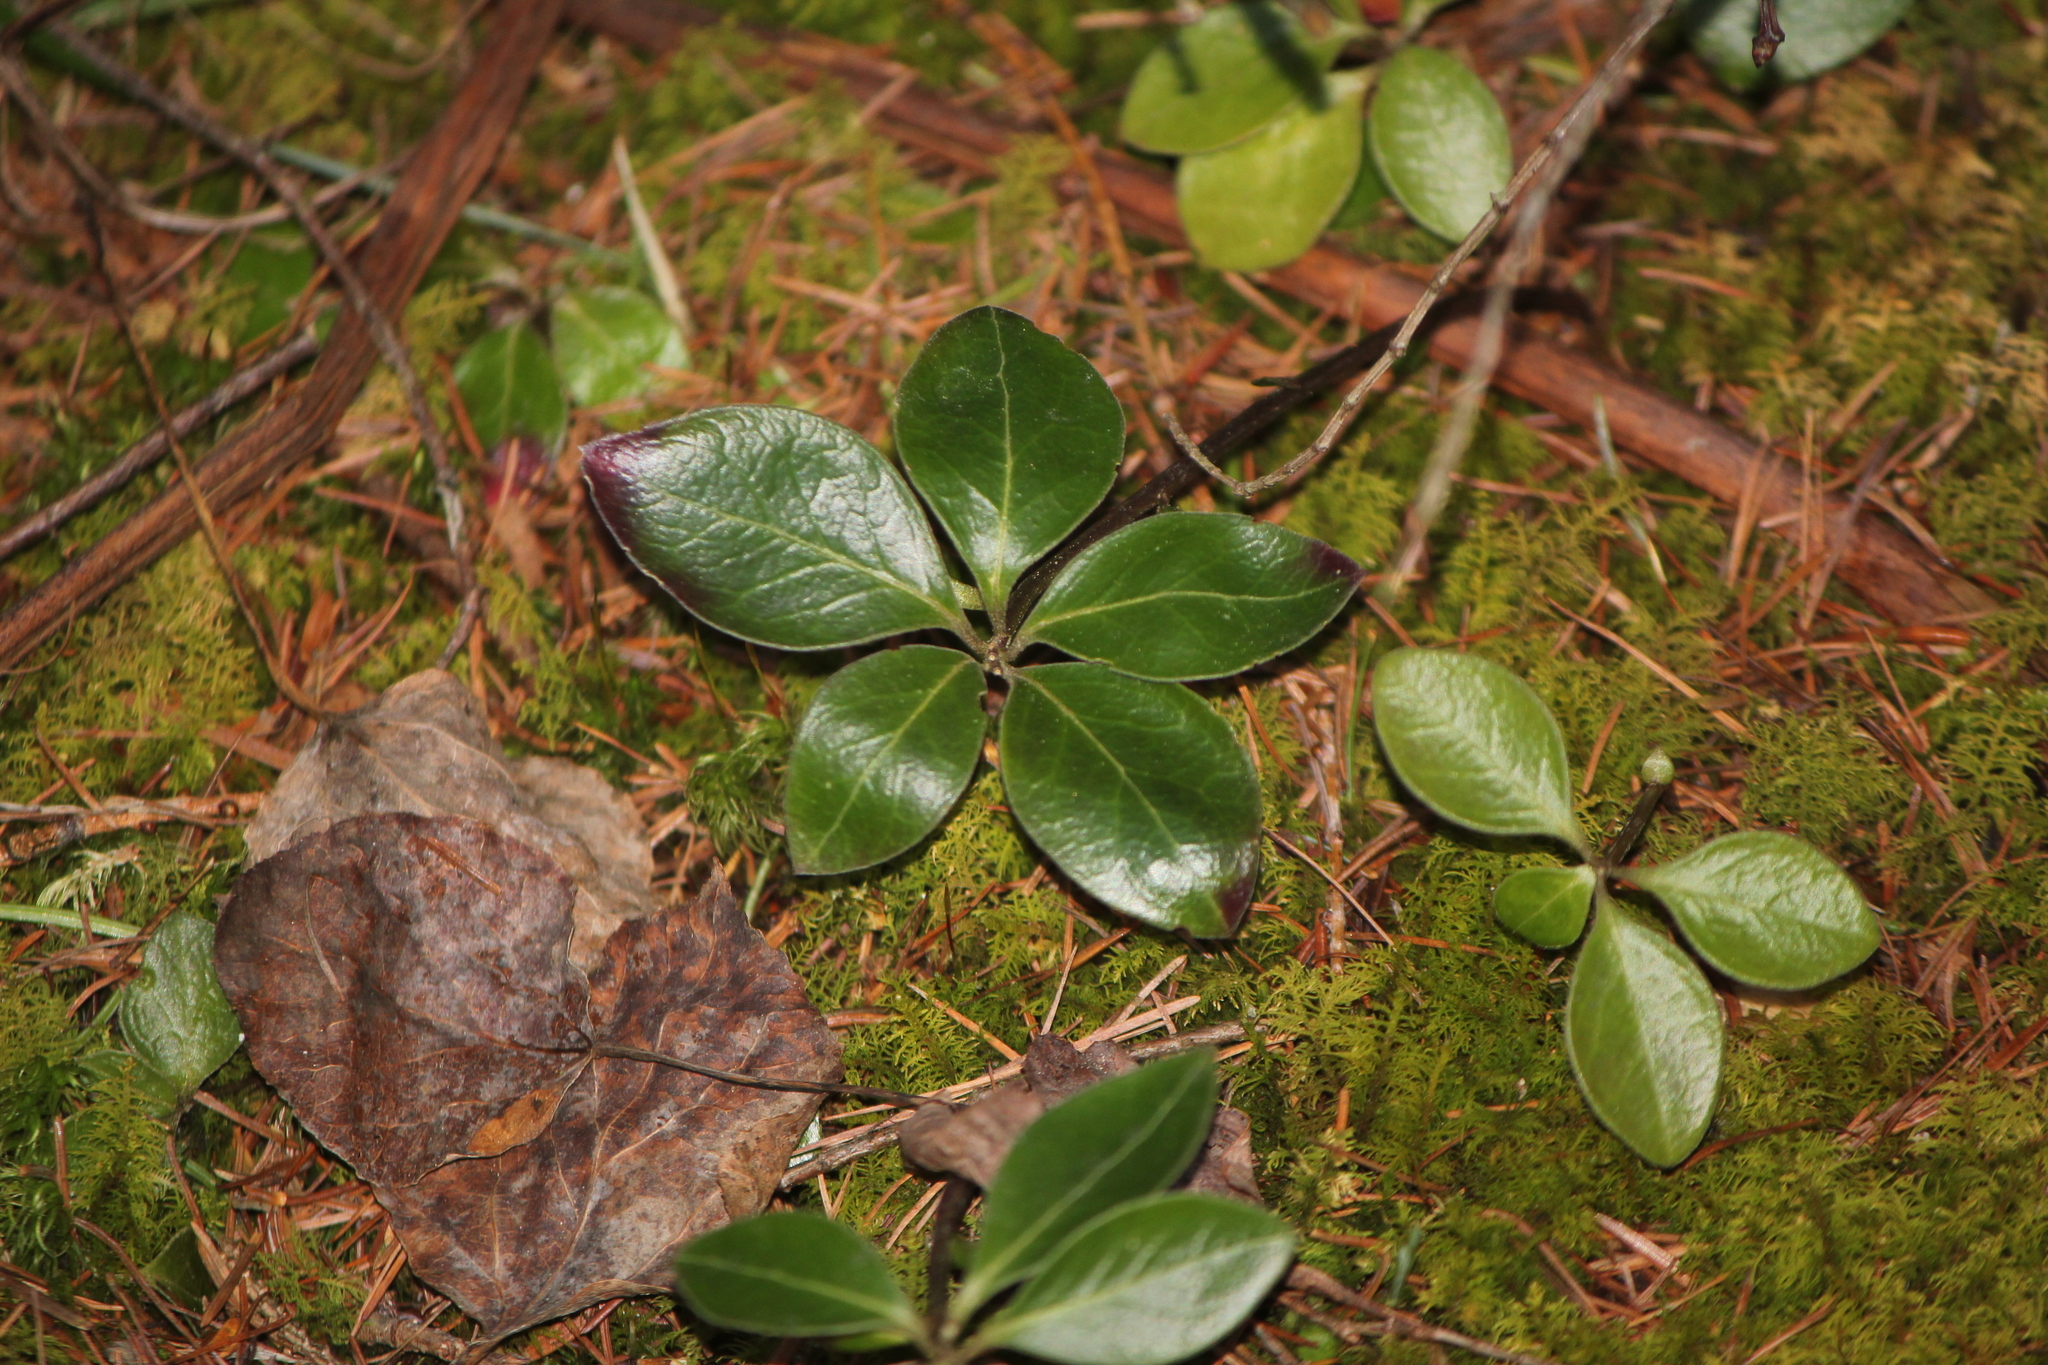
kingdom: Plantae
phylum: Tracheophyta
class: Magnoliopsida
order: Fabales
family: Polygalaceae
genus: Polygaloides
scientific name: Polygaloides paucifolia
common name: Bird-on-the-wing
